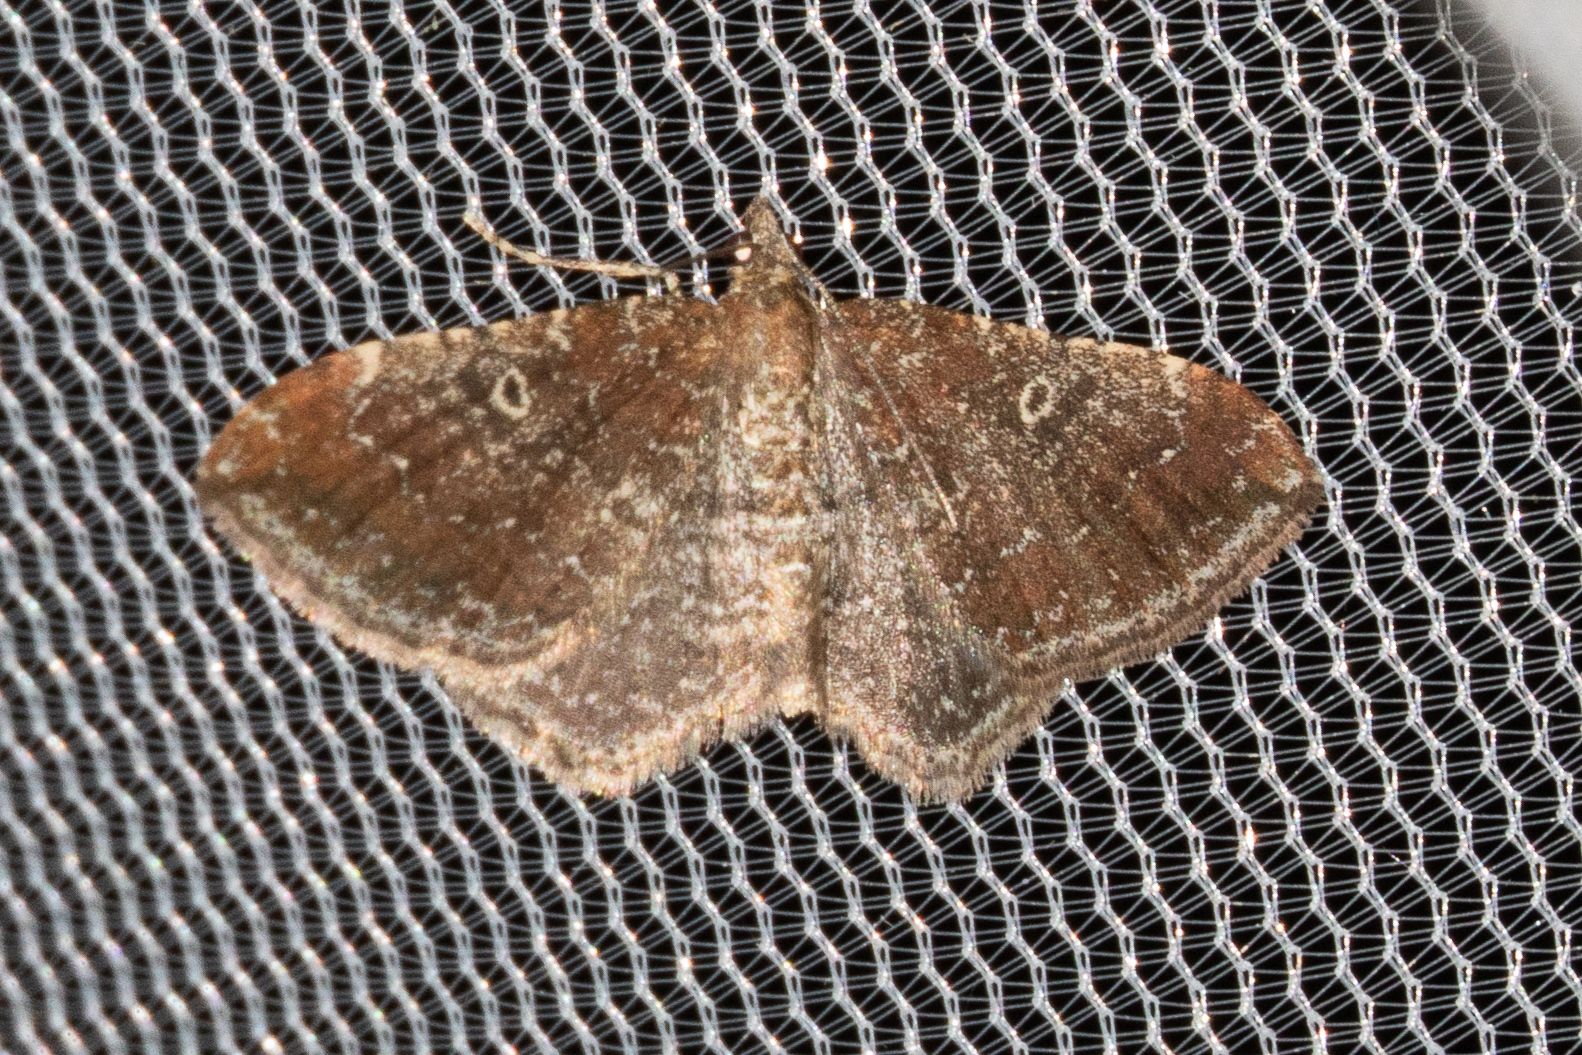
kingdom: Animalia
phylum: Arthropoda
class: Insecta
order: Lepidoptera
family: Geometridae
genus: Orthonama
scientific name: Orthonama obstipata
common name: The gem
